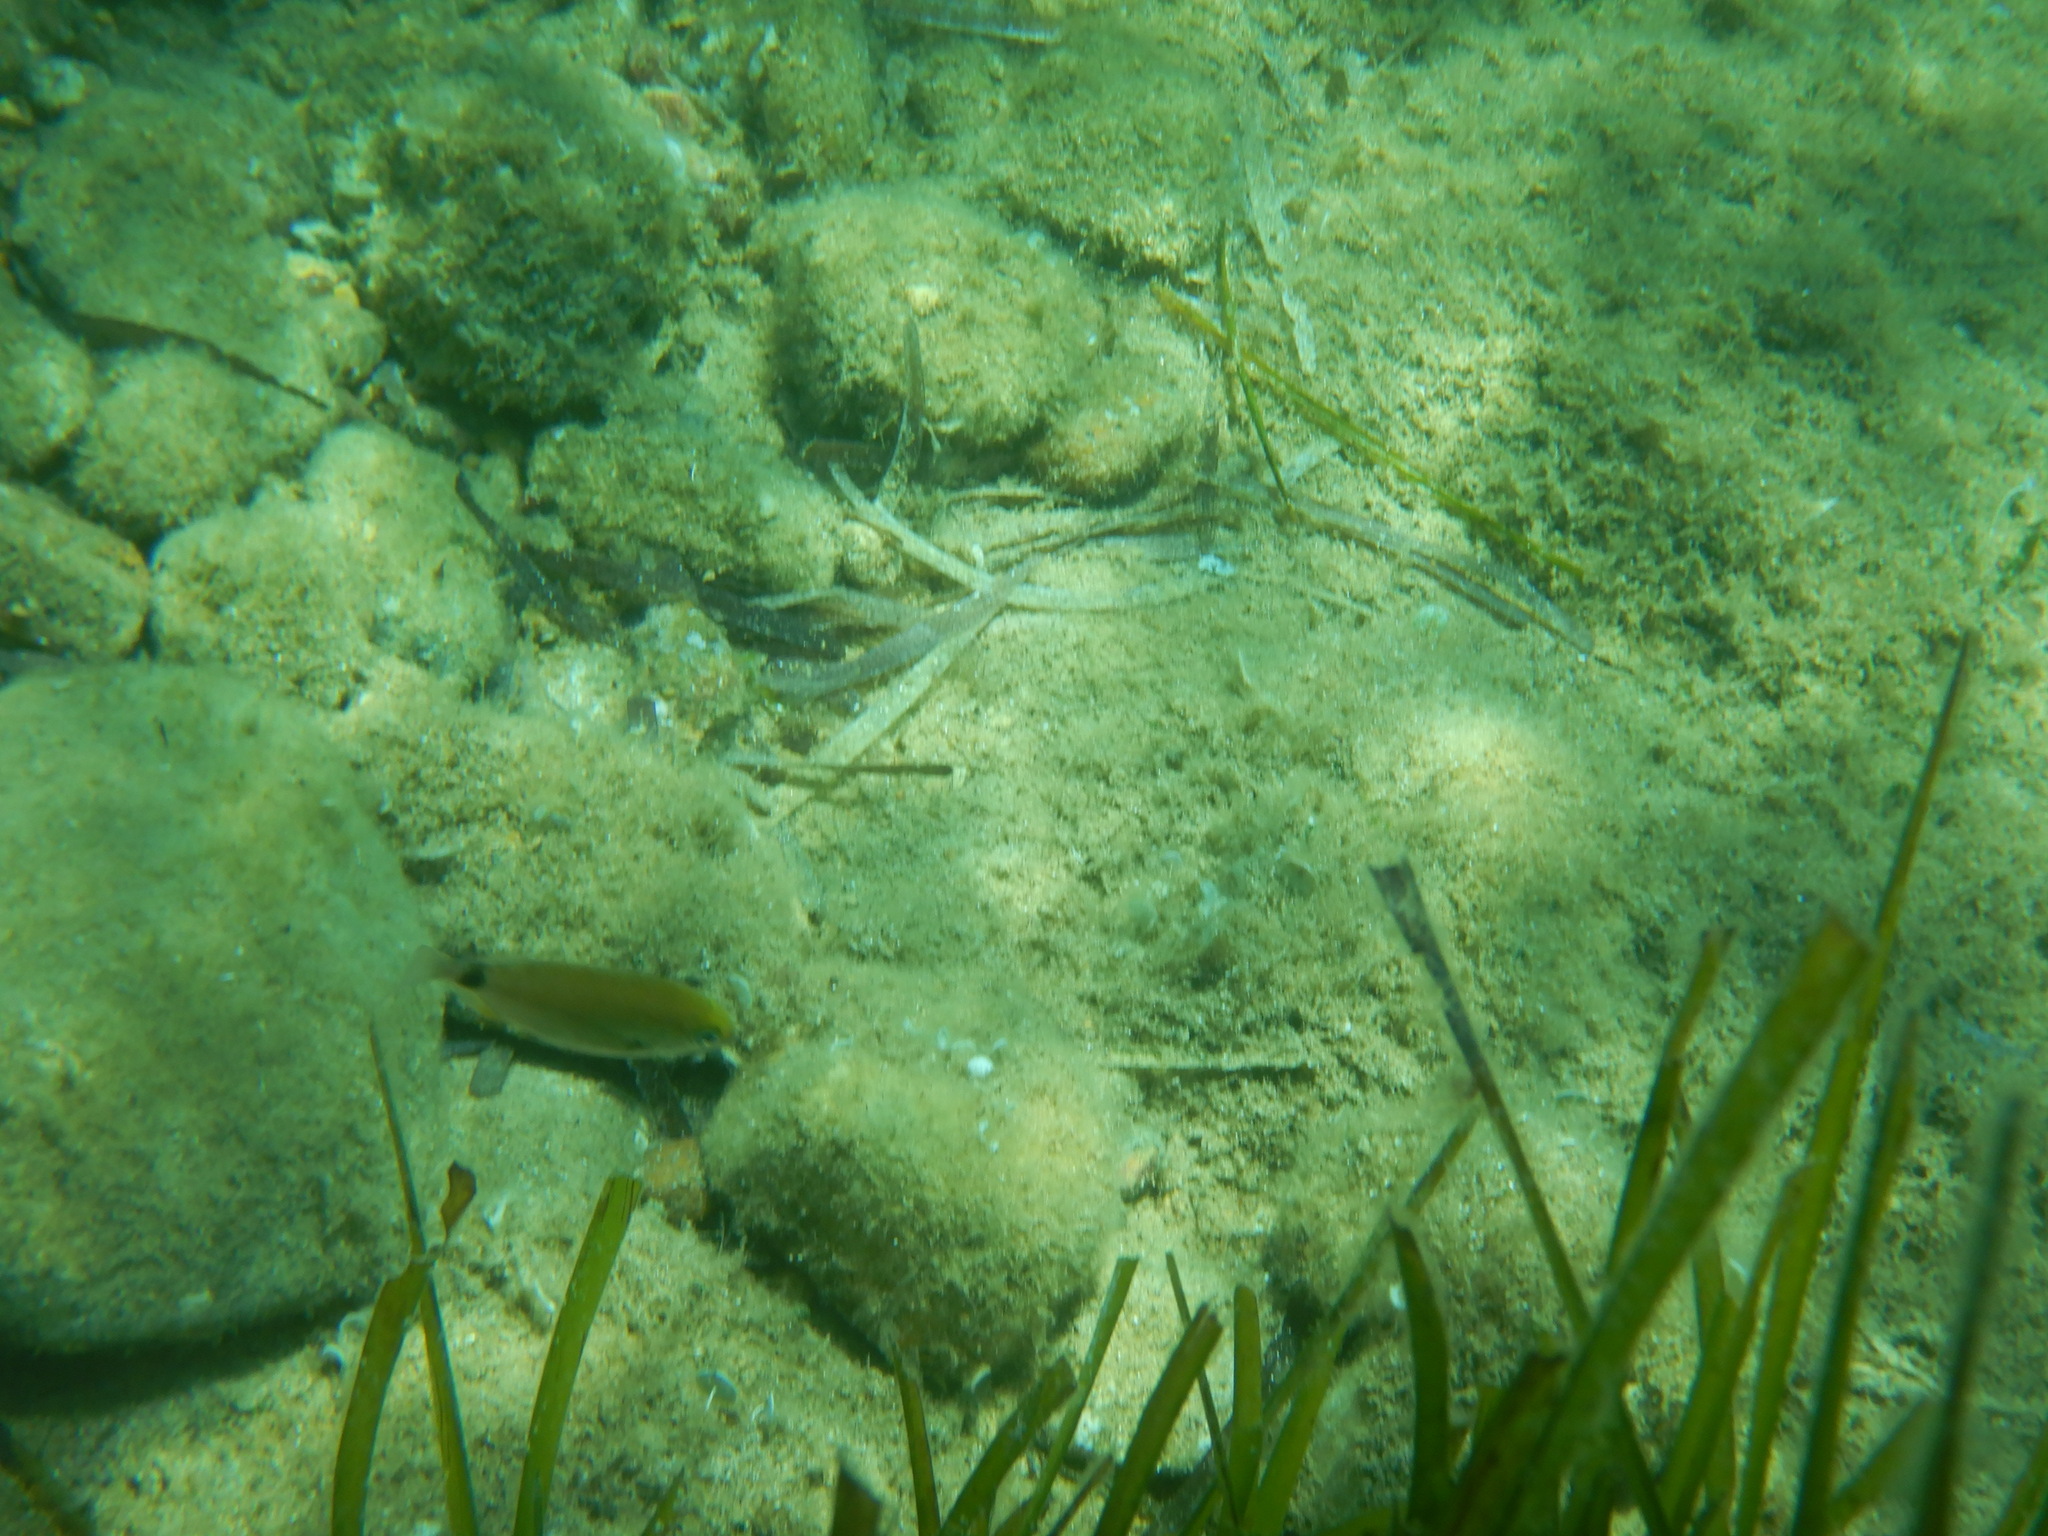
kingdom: Animalia
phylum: Chordata
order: Perciformes
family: Sparidae
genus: Diplodus
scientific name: Diplodus annularis
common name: Annular seabream
